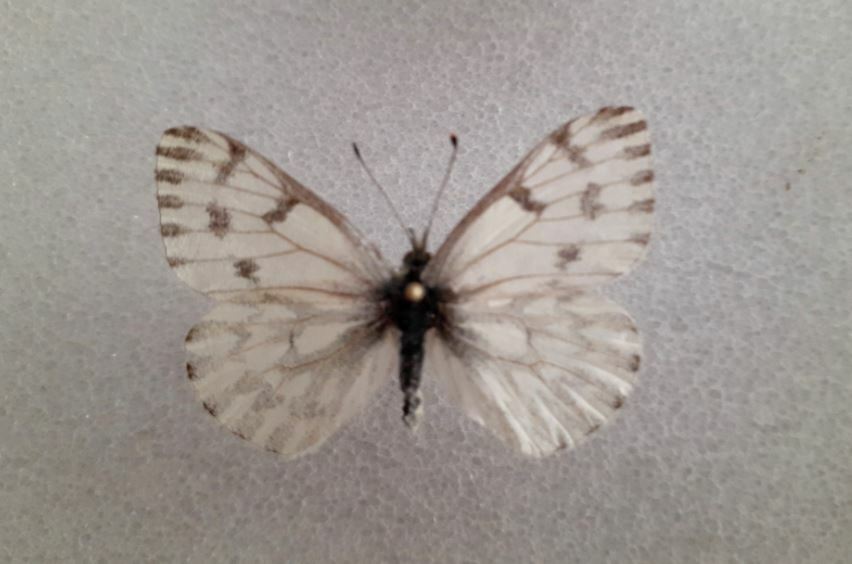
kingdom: Animalia
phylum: Arthropoda
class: Insecta
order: Lepidoptera
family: Pieridae
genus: Pontia
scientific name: Pontia sisymbrii
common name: California white
